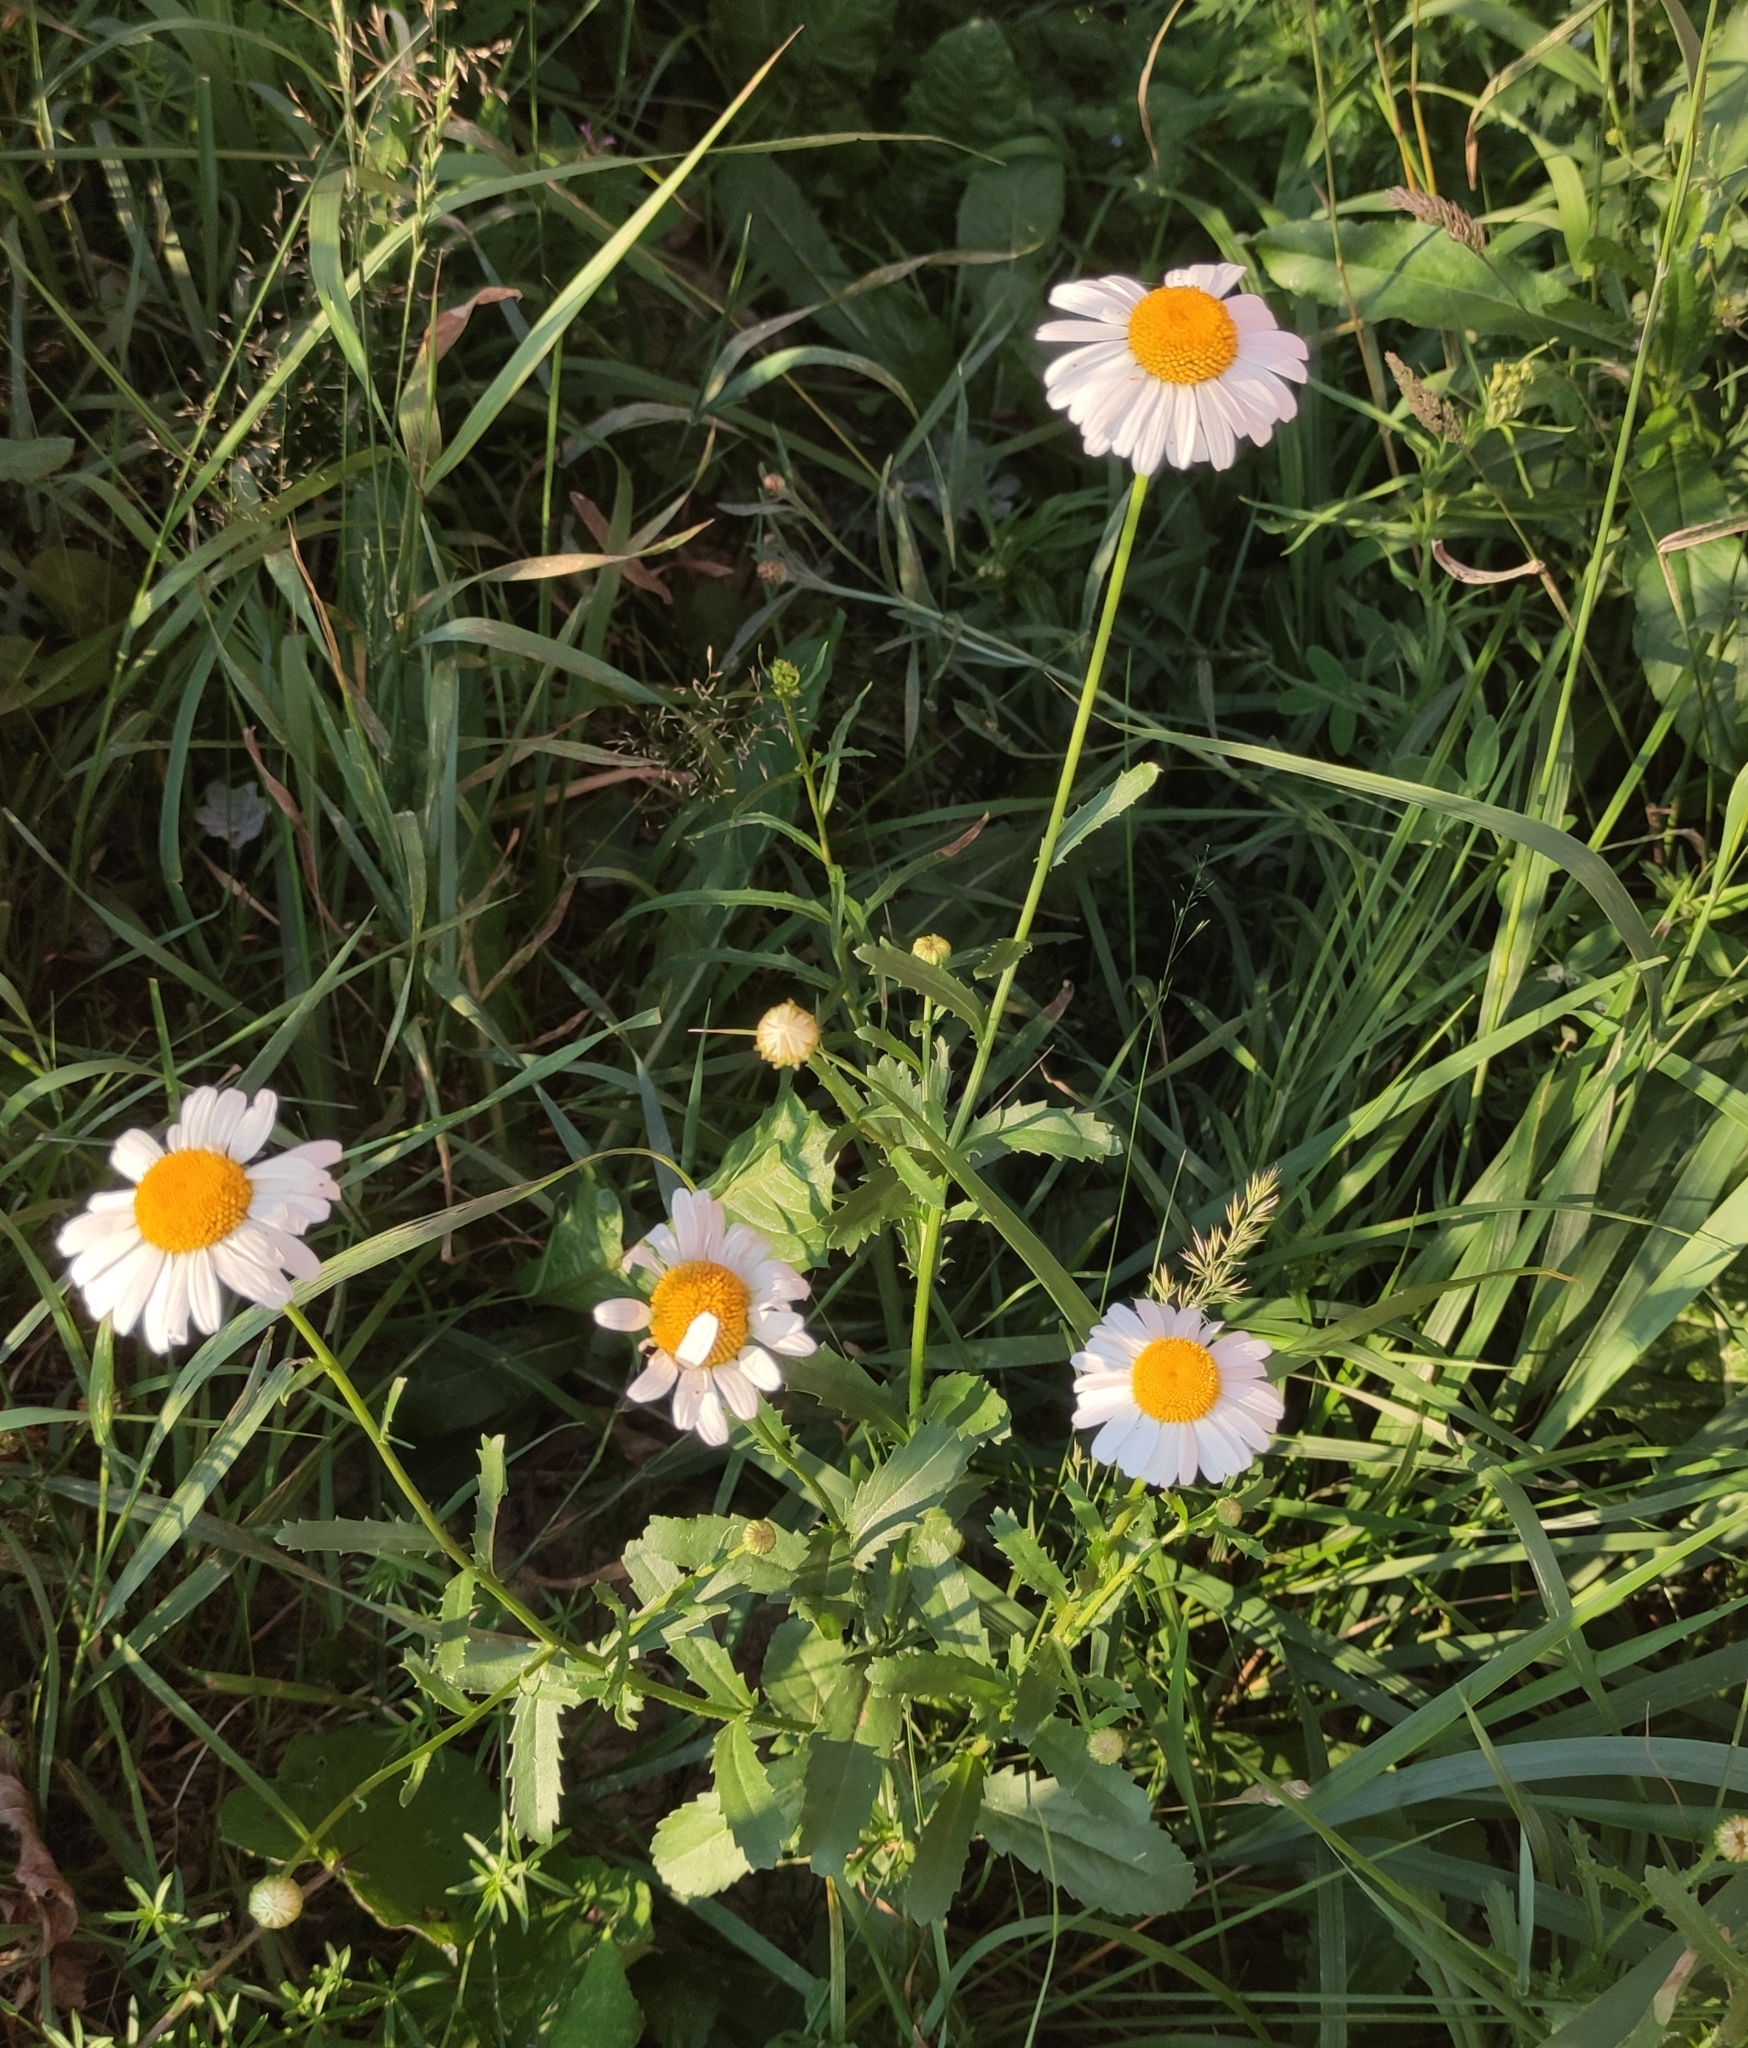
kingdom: Plantae
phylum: Tracheophyta
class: Magnoliopsida
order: Asterales
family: Asteraceae
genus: Leucanthemum
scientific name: Leucanthemum vulgare
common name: Oxeye daisy
